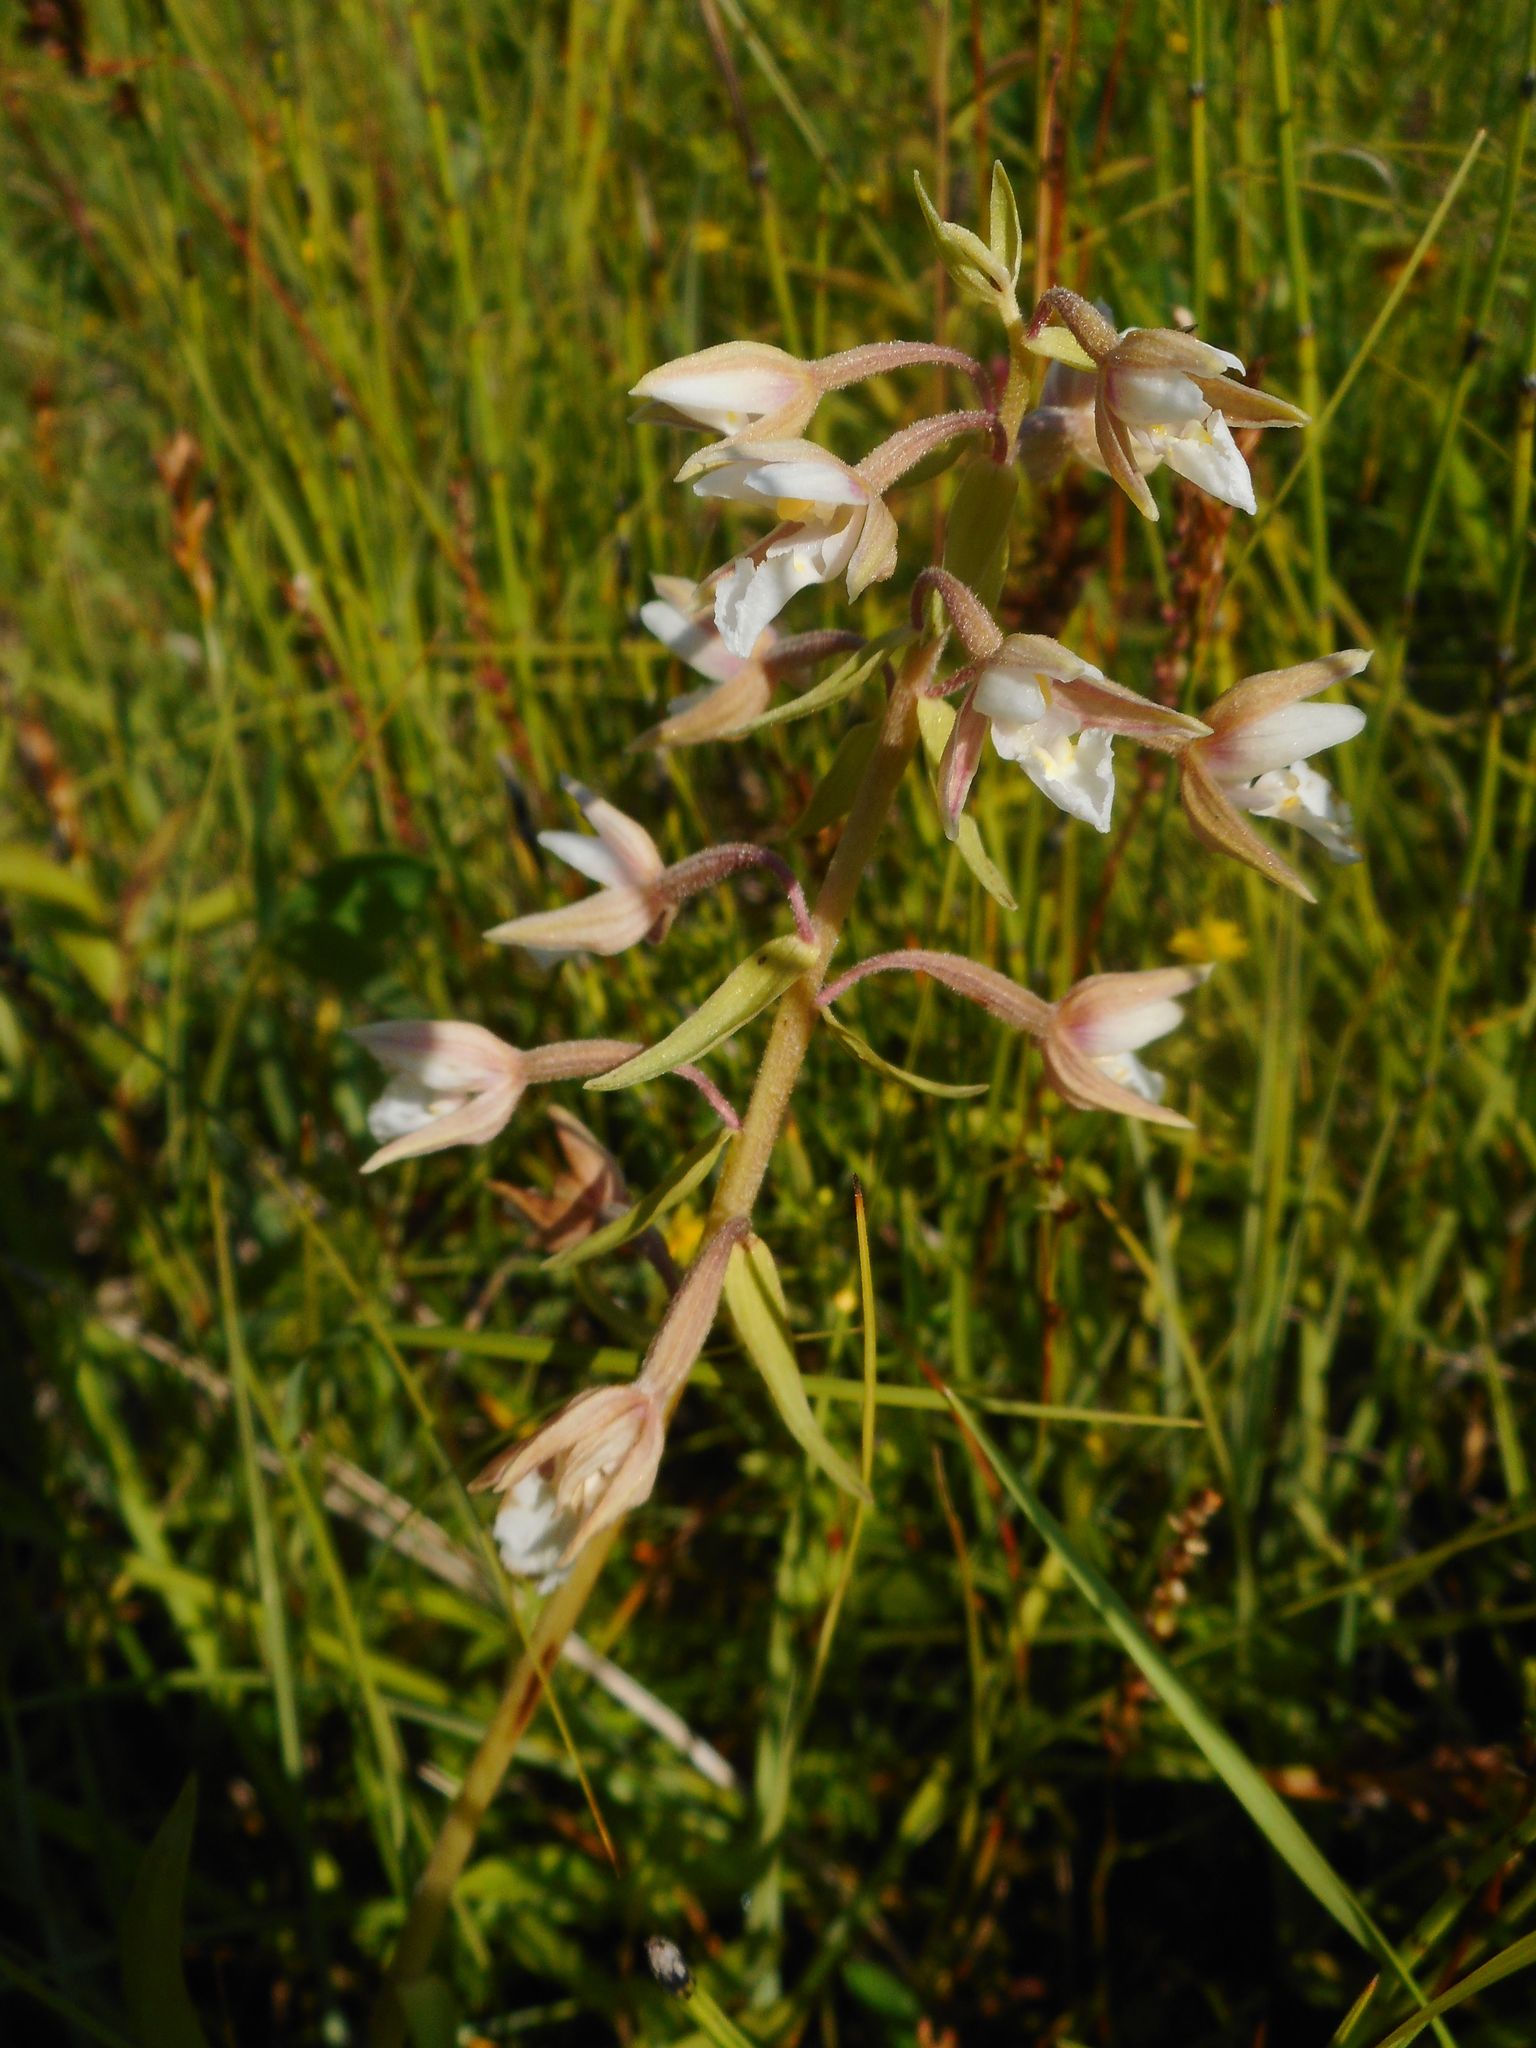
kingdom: Plantae
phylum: Tracheophyta
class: Liliopsida
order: Asparagales
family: Orchidaceae
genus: Epipactis
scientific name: Epipactis palustris
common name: Marsh helleborine
